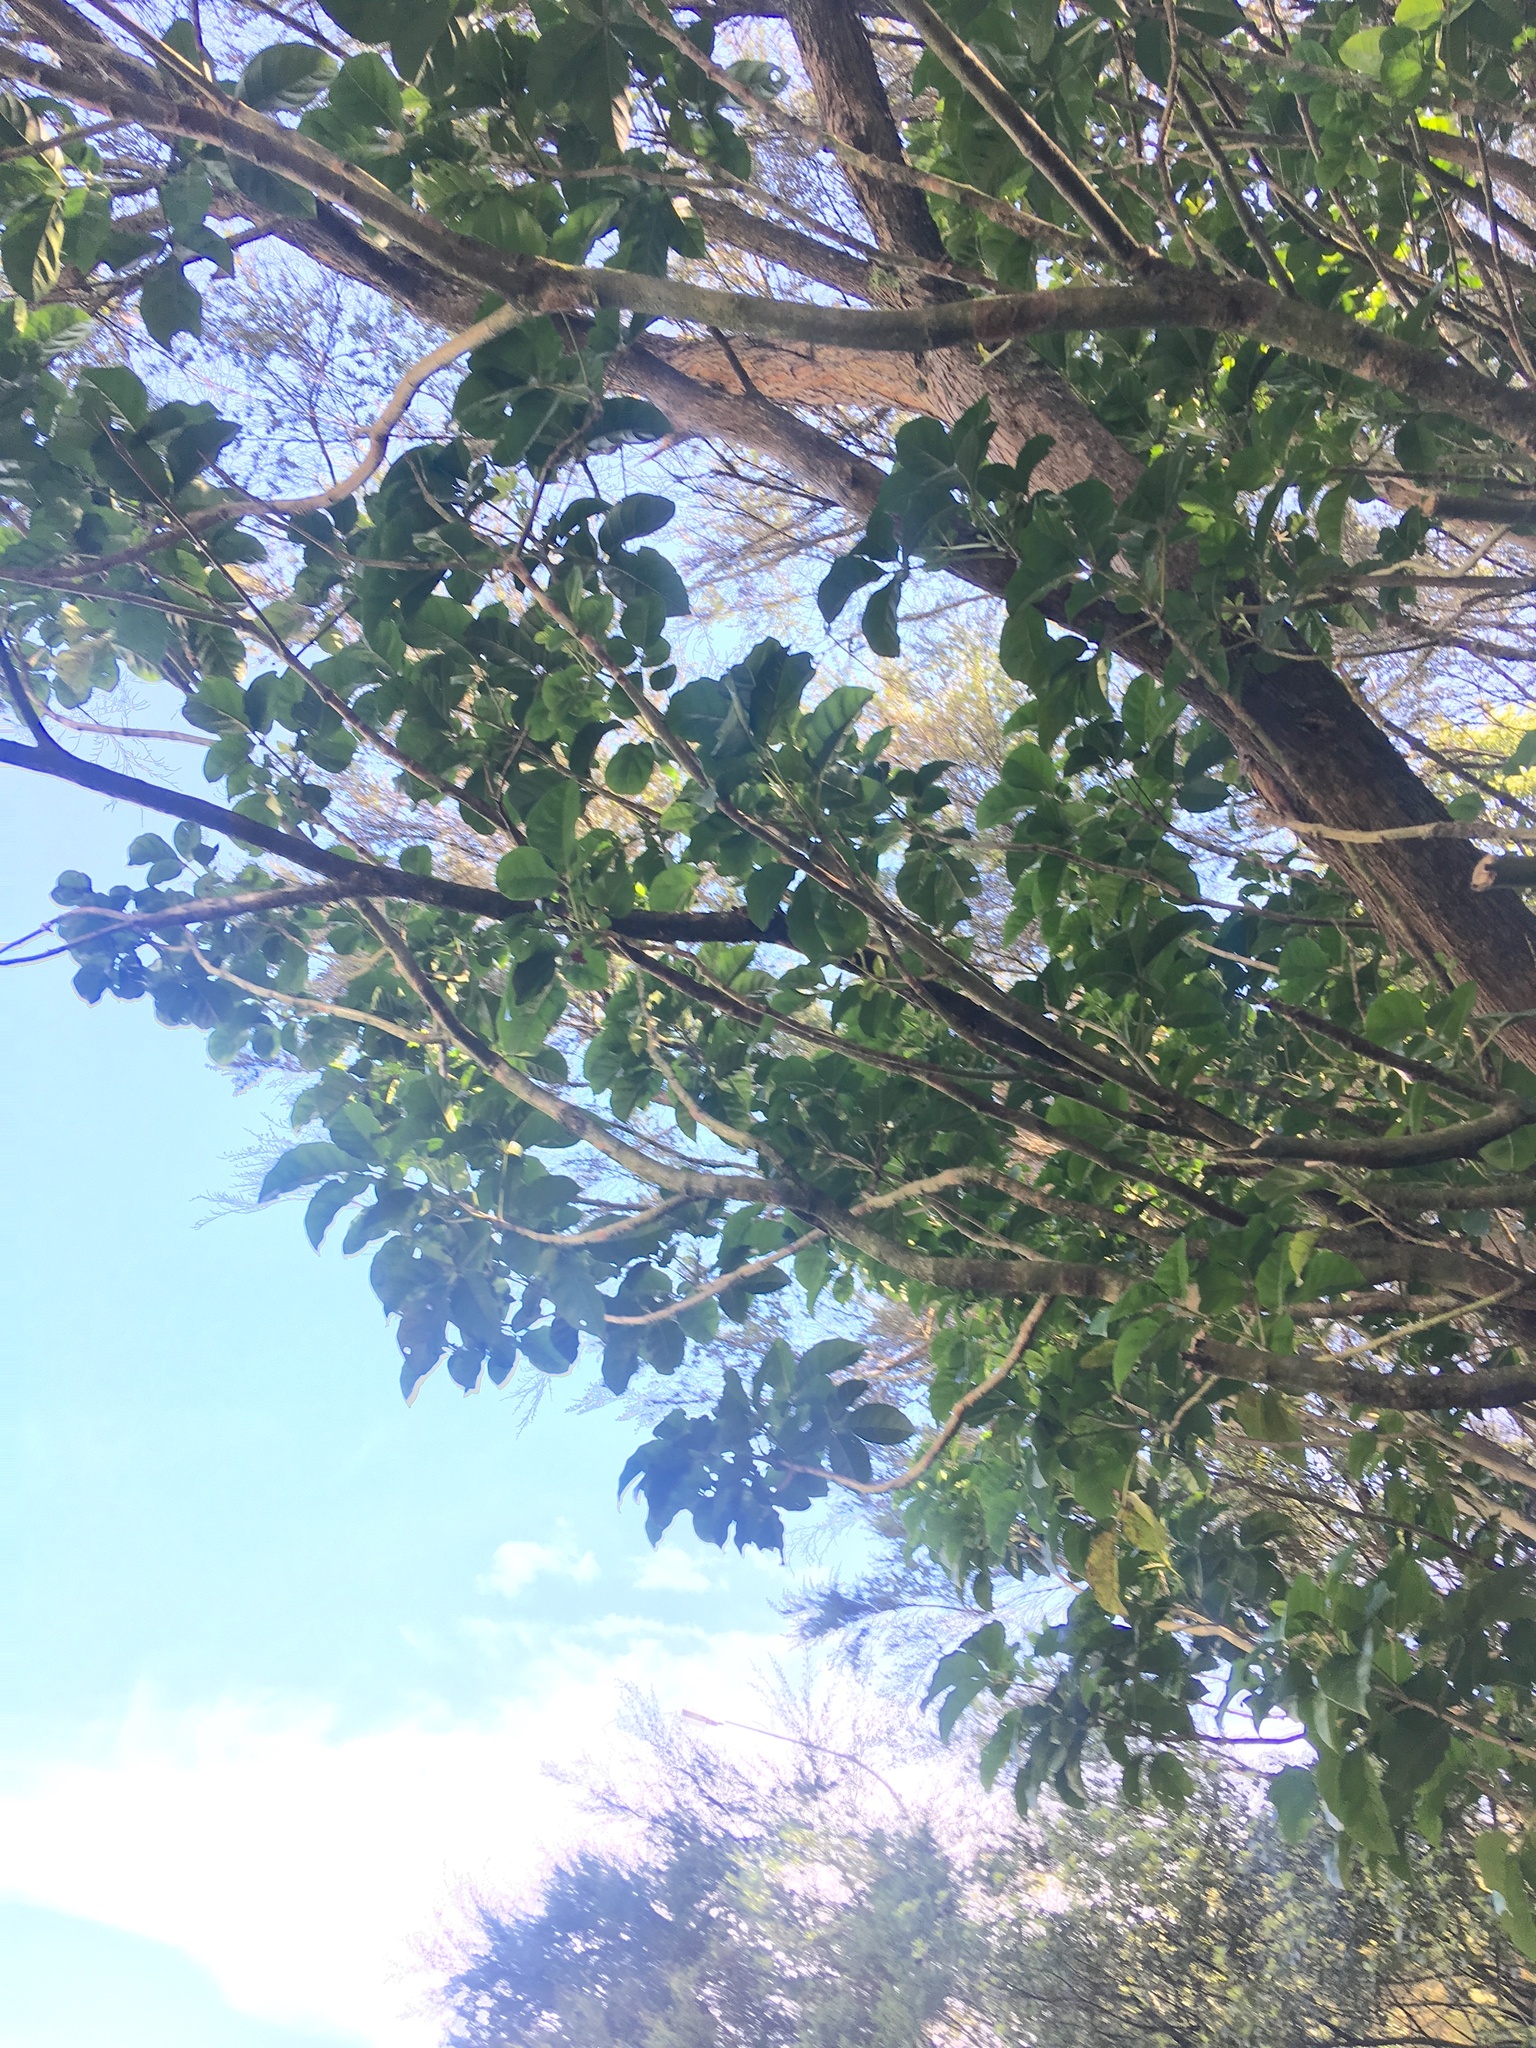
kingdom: Plantae
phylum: Tracheophyta
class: Magnoliopsida
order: Lamiales
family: Lamiaceae
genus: Vitex
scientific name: Vitex lucens
